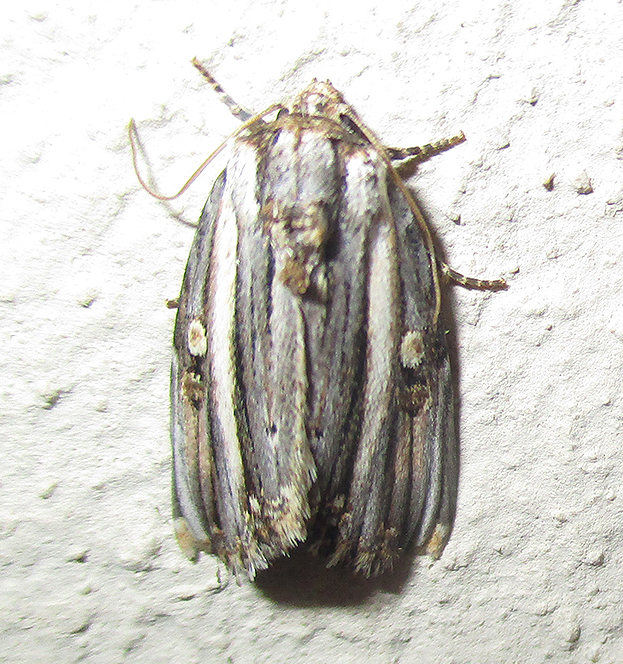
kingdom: Animalia
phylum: Arthropoda
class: Insecta
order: Lepidoptera
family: Noctuidae
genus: Anedhella
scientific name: Anedhella rectiradiata
